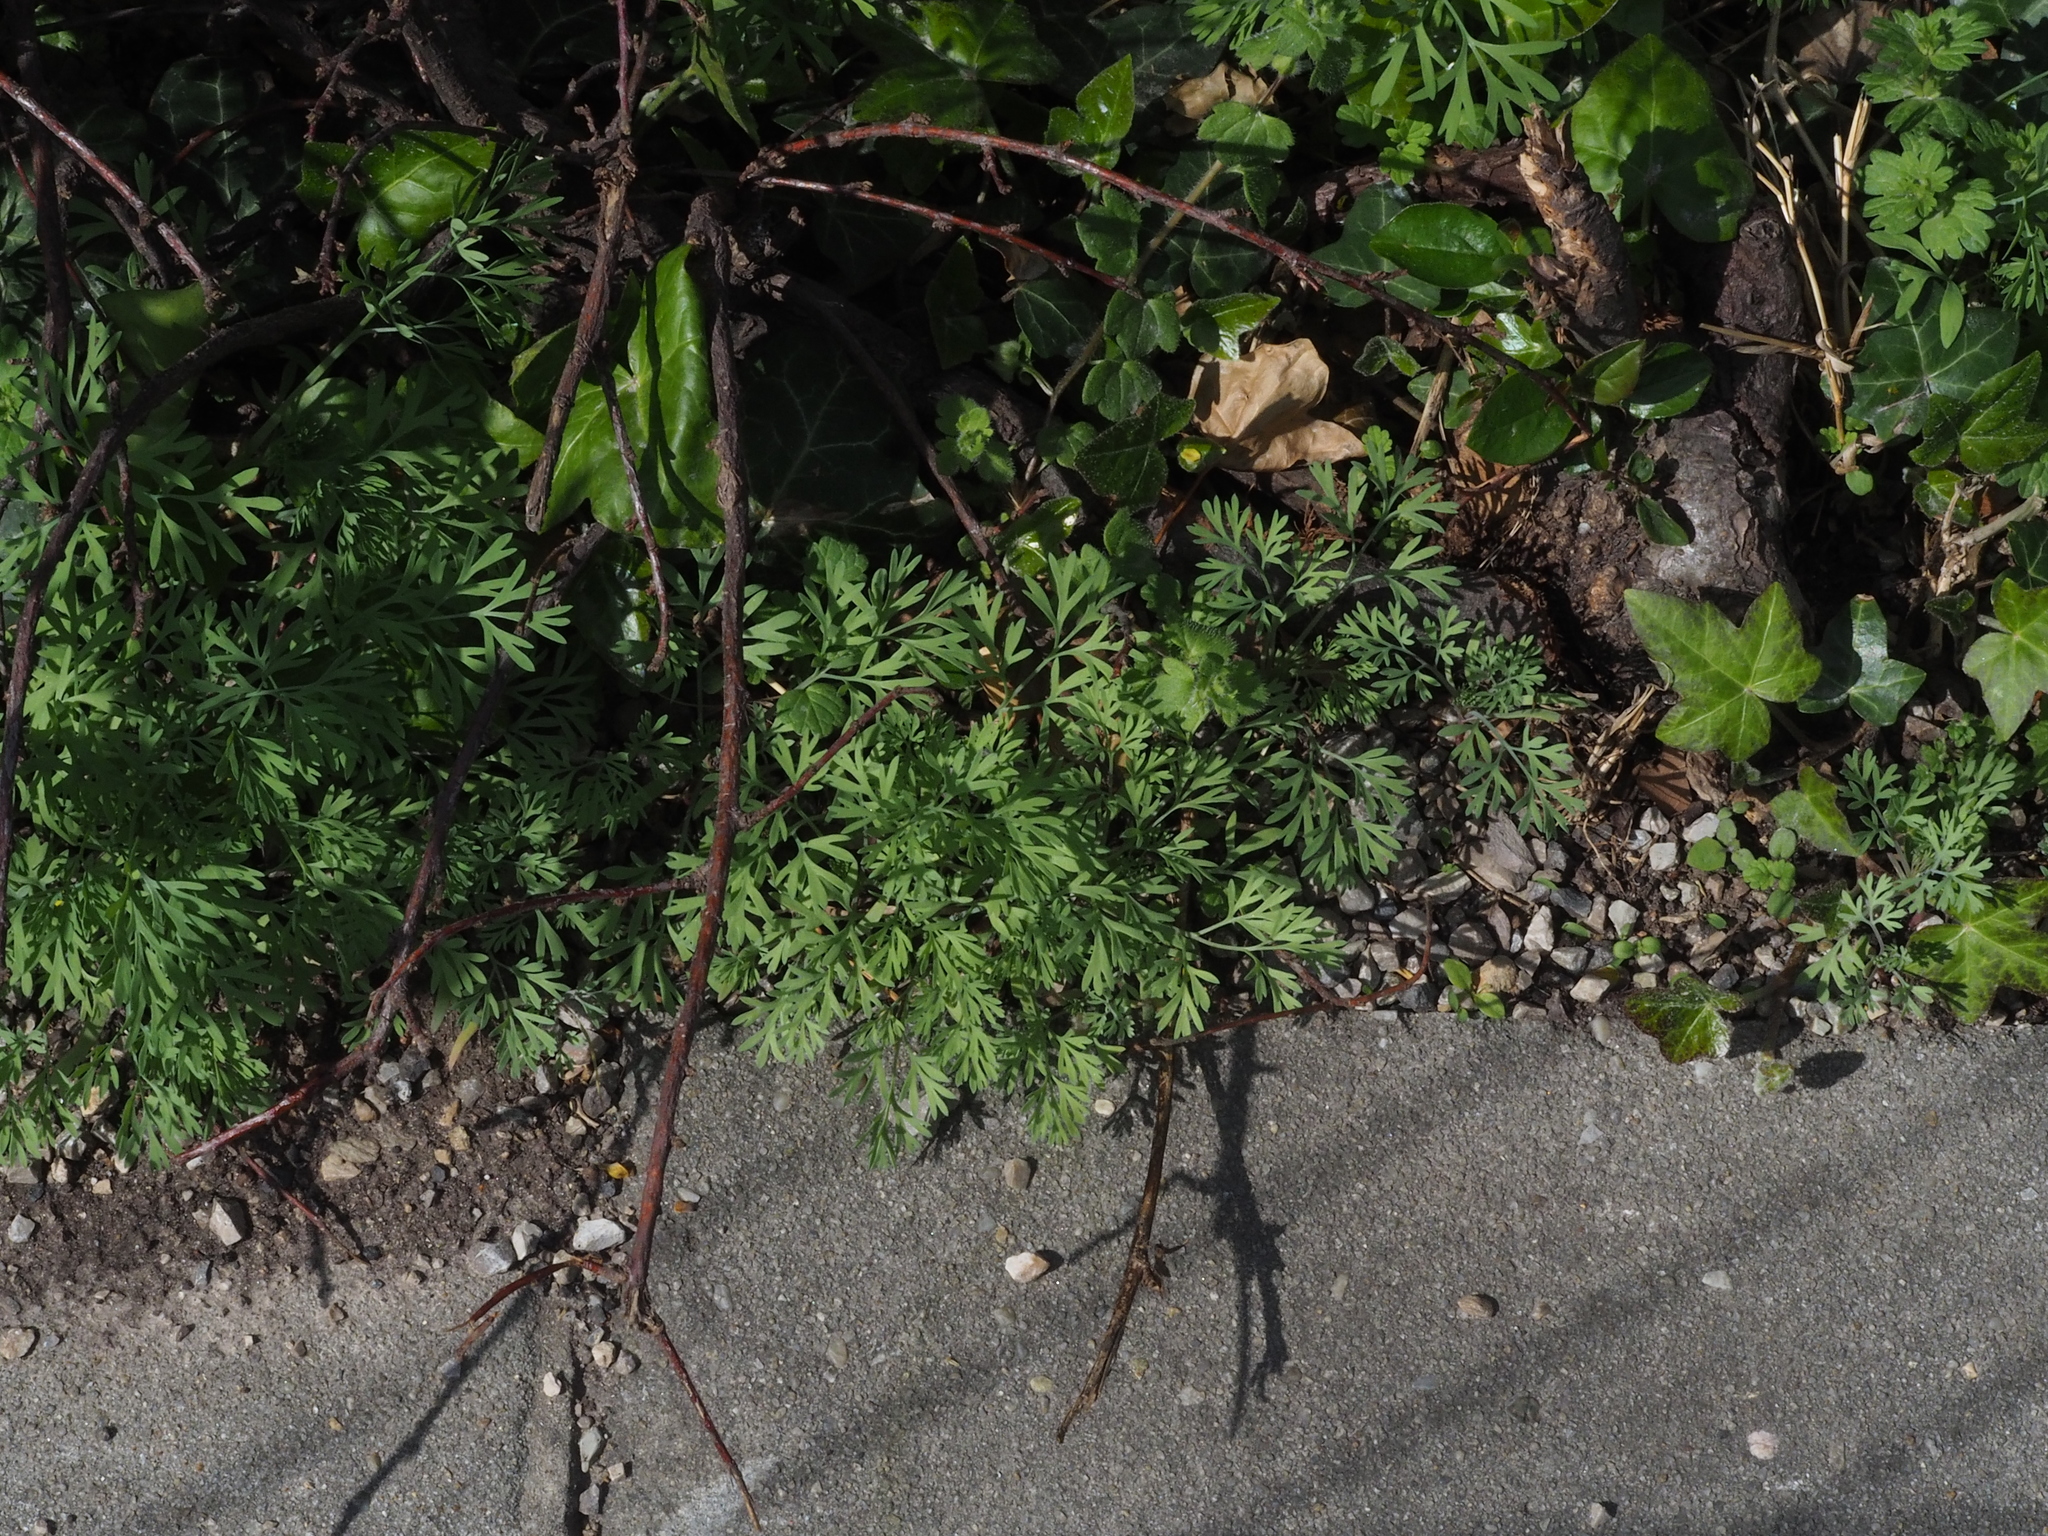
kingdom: Plantae
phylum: Tracheophyta
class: Magnoliopsida
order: Ranunculales
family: Papaveraceae
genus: Fumaria
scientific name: Fumaria vaillantii
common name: Few-flowered fumitory
